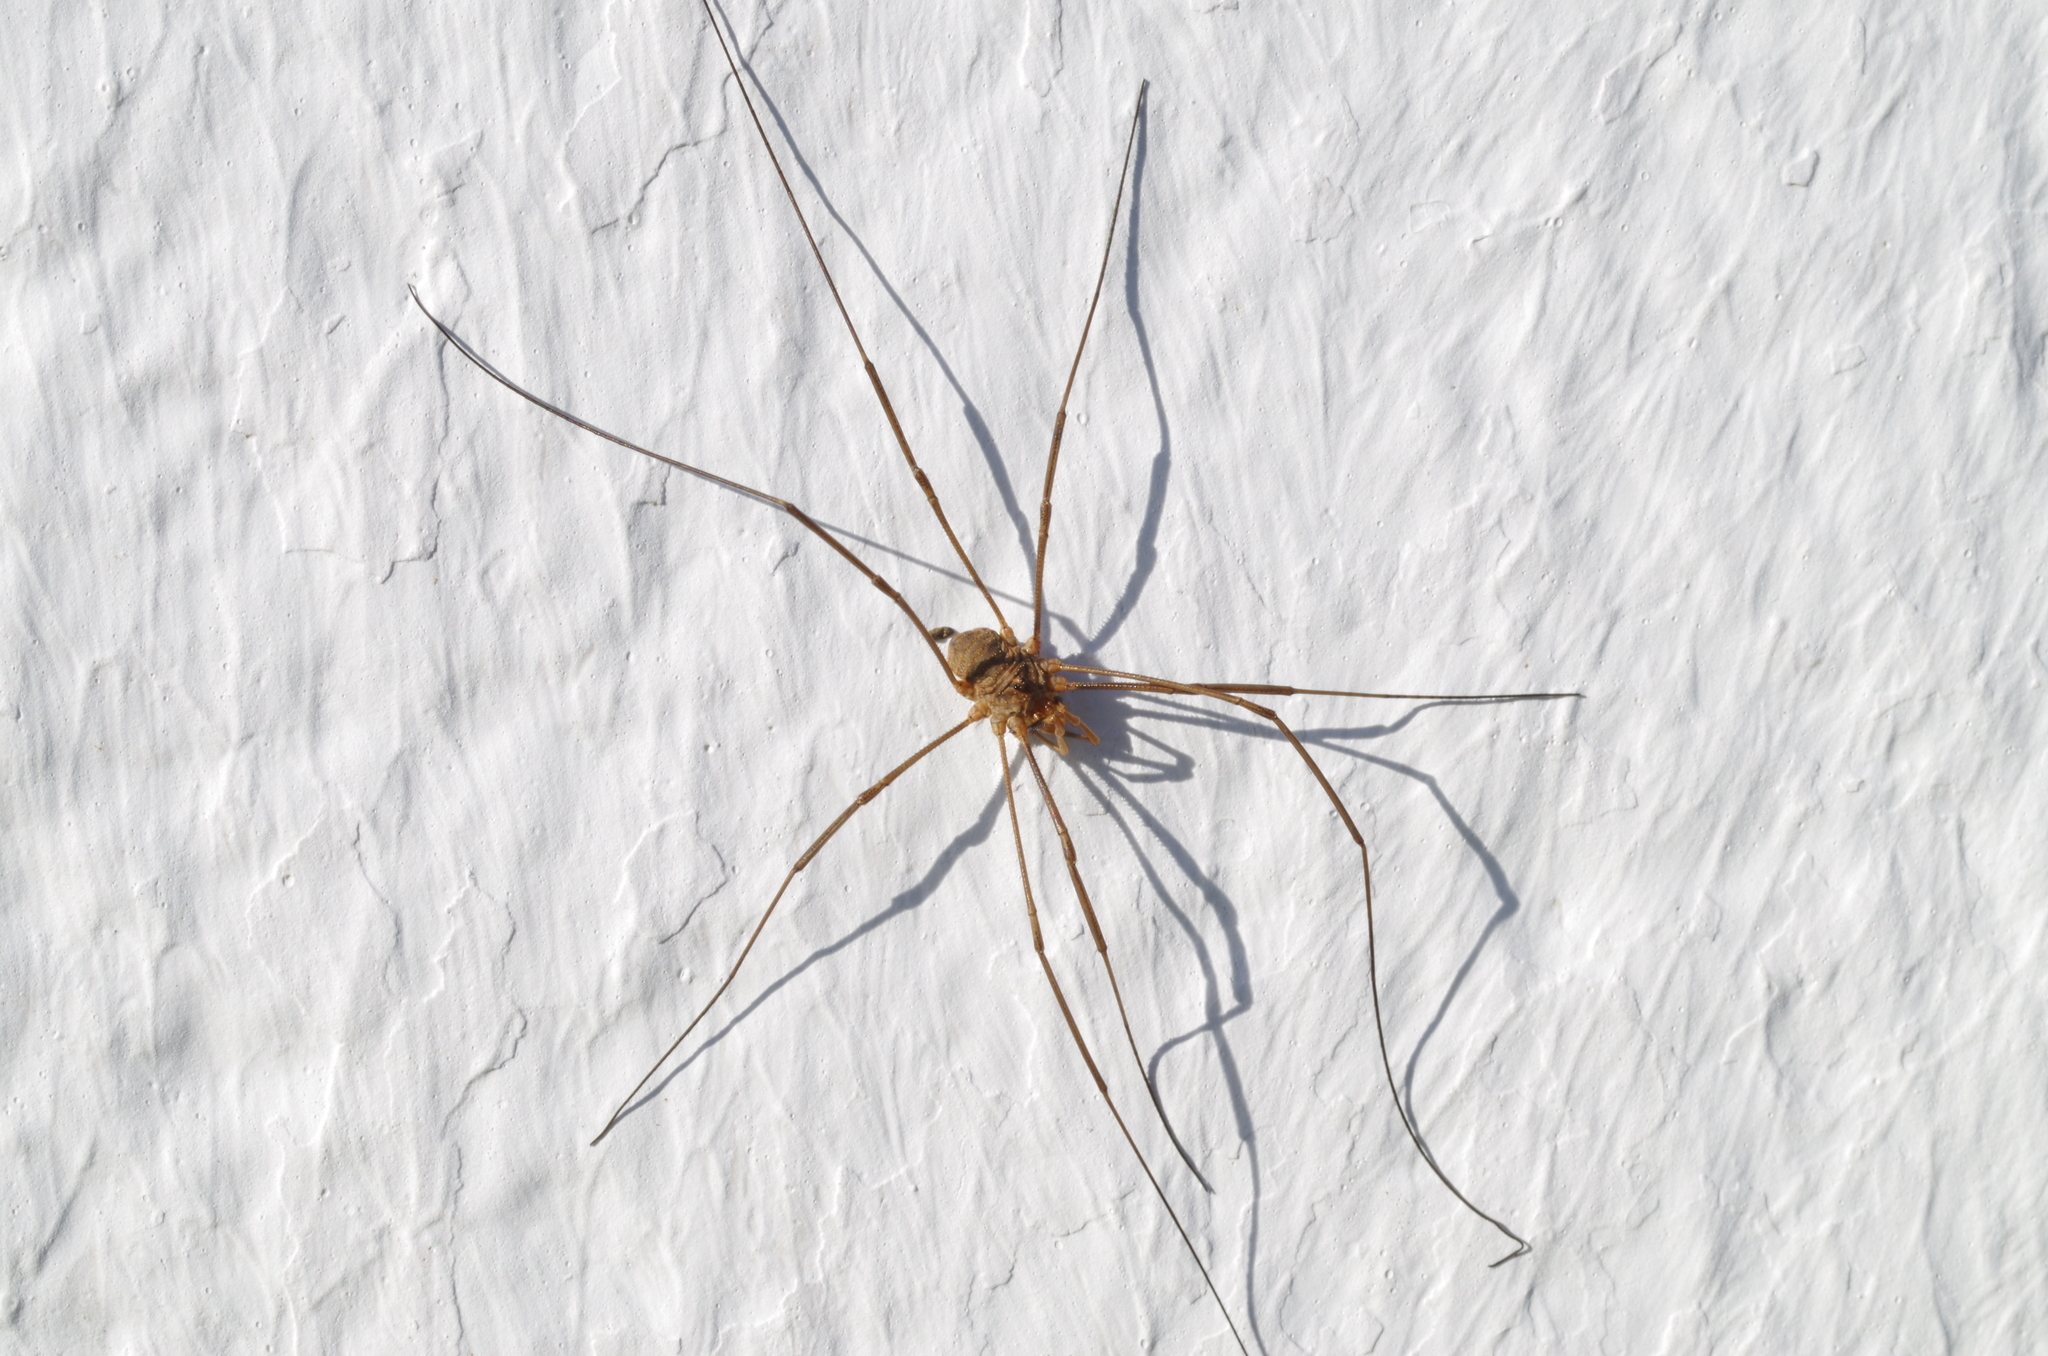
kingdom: Animalia
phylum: Arthropoda
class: Arachnida
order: Opiliones
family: Phalangiidae
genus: Phalangium
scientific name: Phalangium opilio
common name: Daddy longleg
